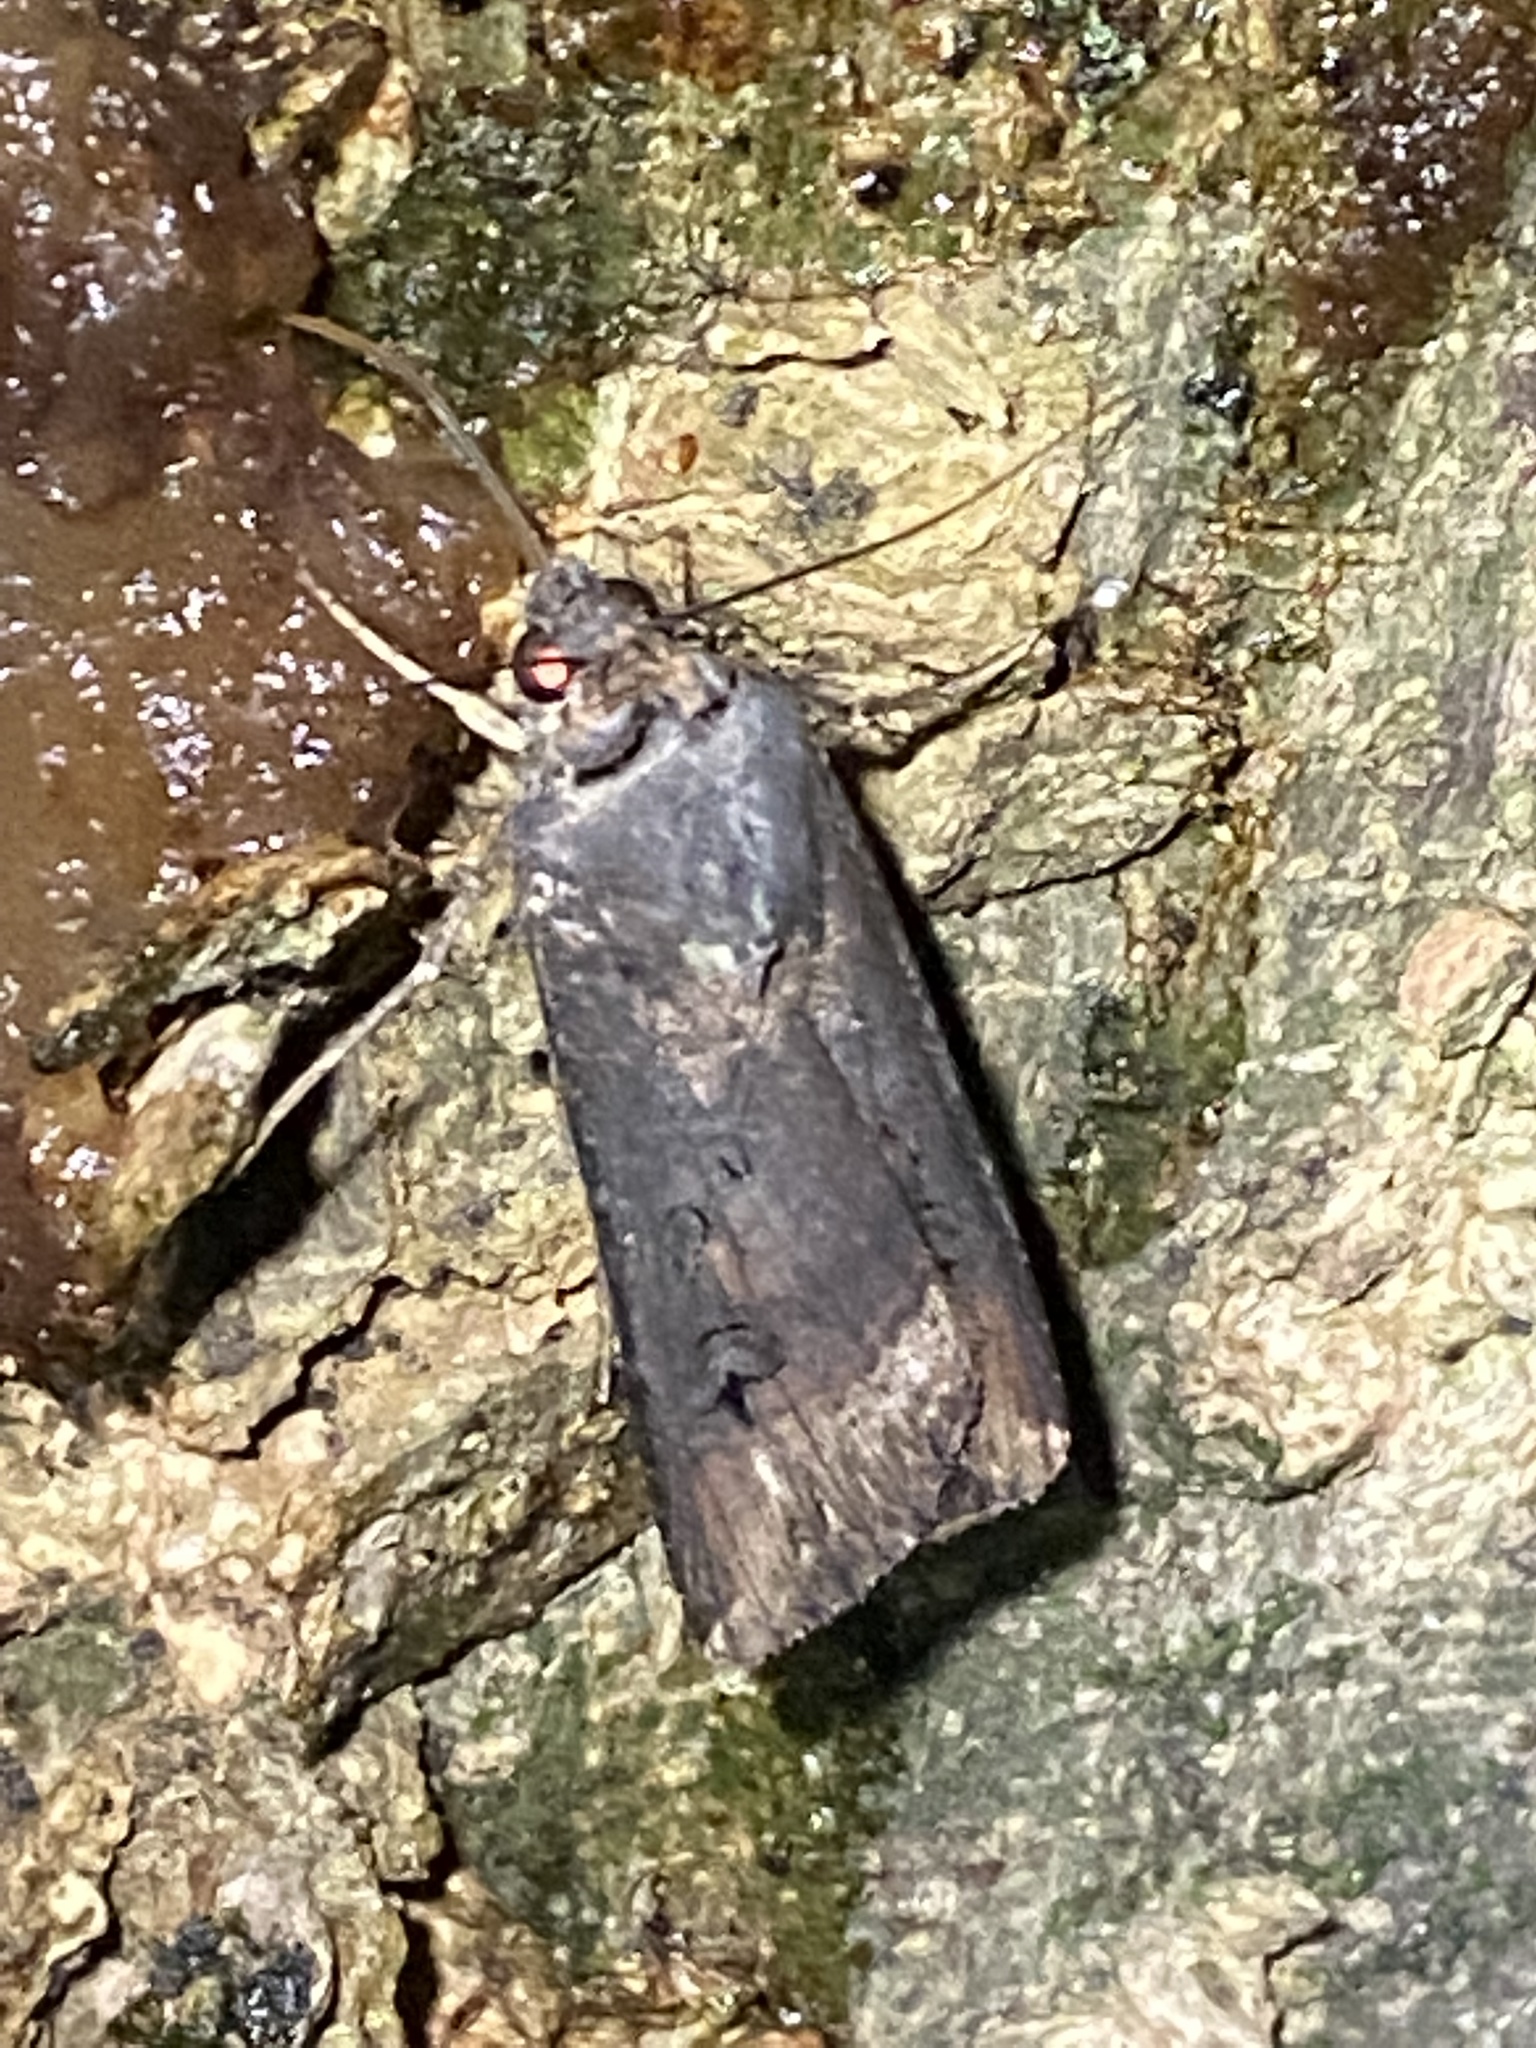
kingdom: Animalia
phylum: Arthropoda
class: Insecta
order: Lepidoptera
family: Noctuidae
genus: Agrotis
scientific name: Agrotis ipsilon
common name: Dark sword-grass
